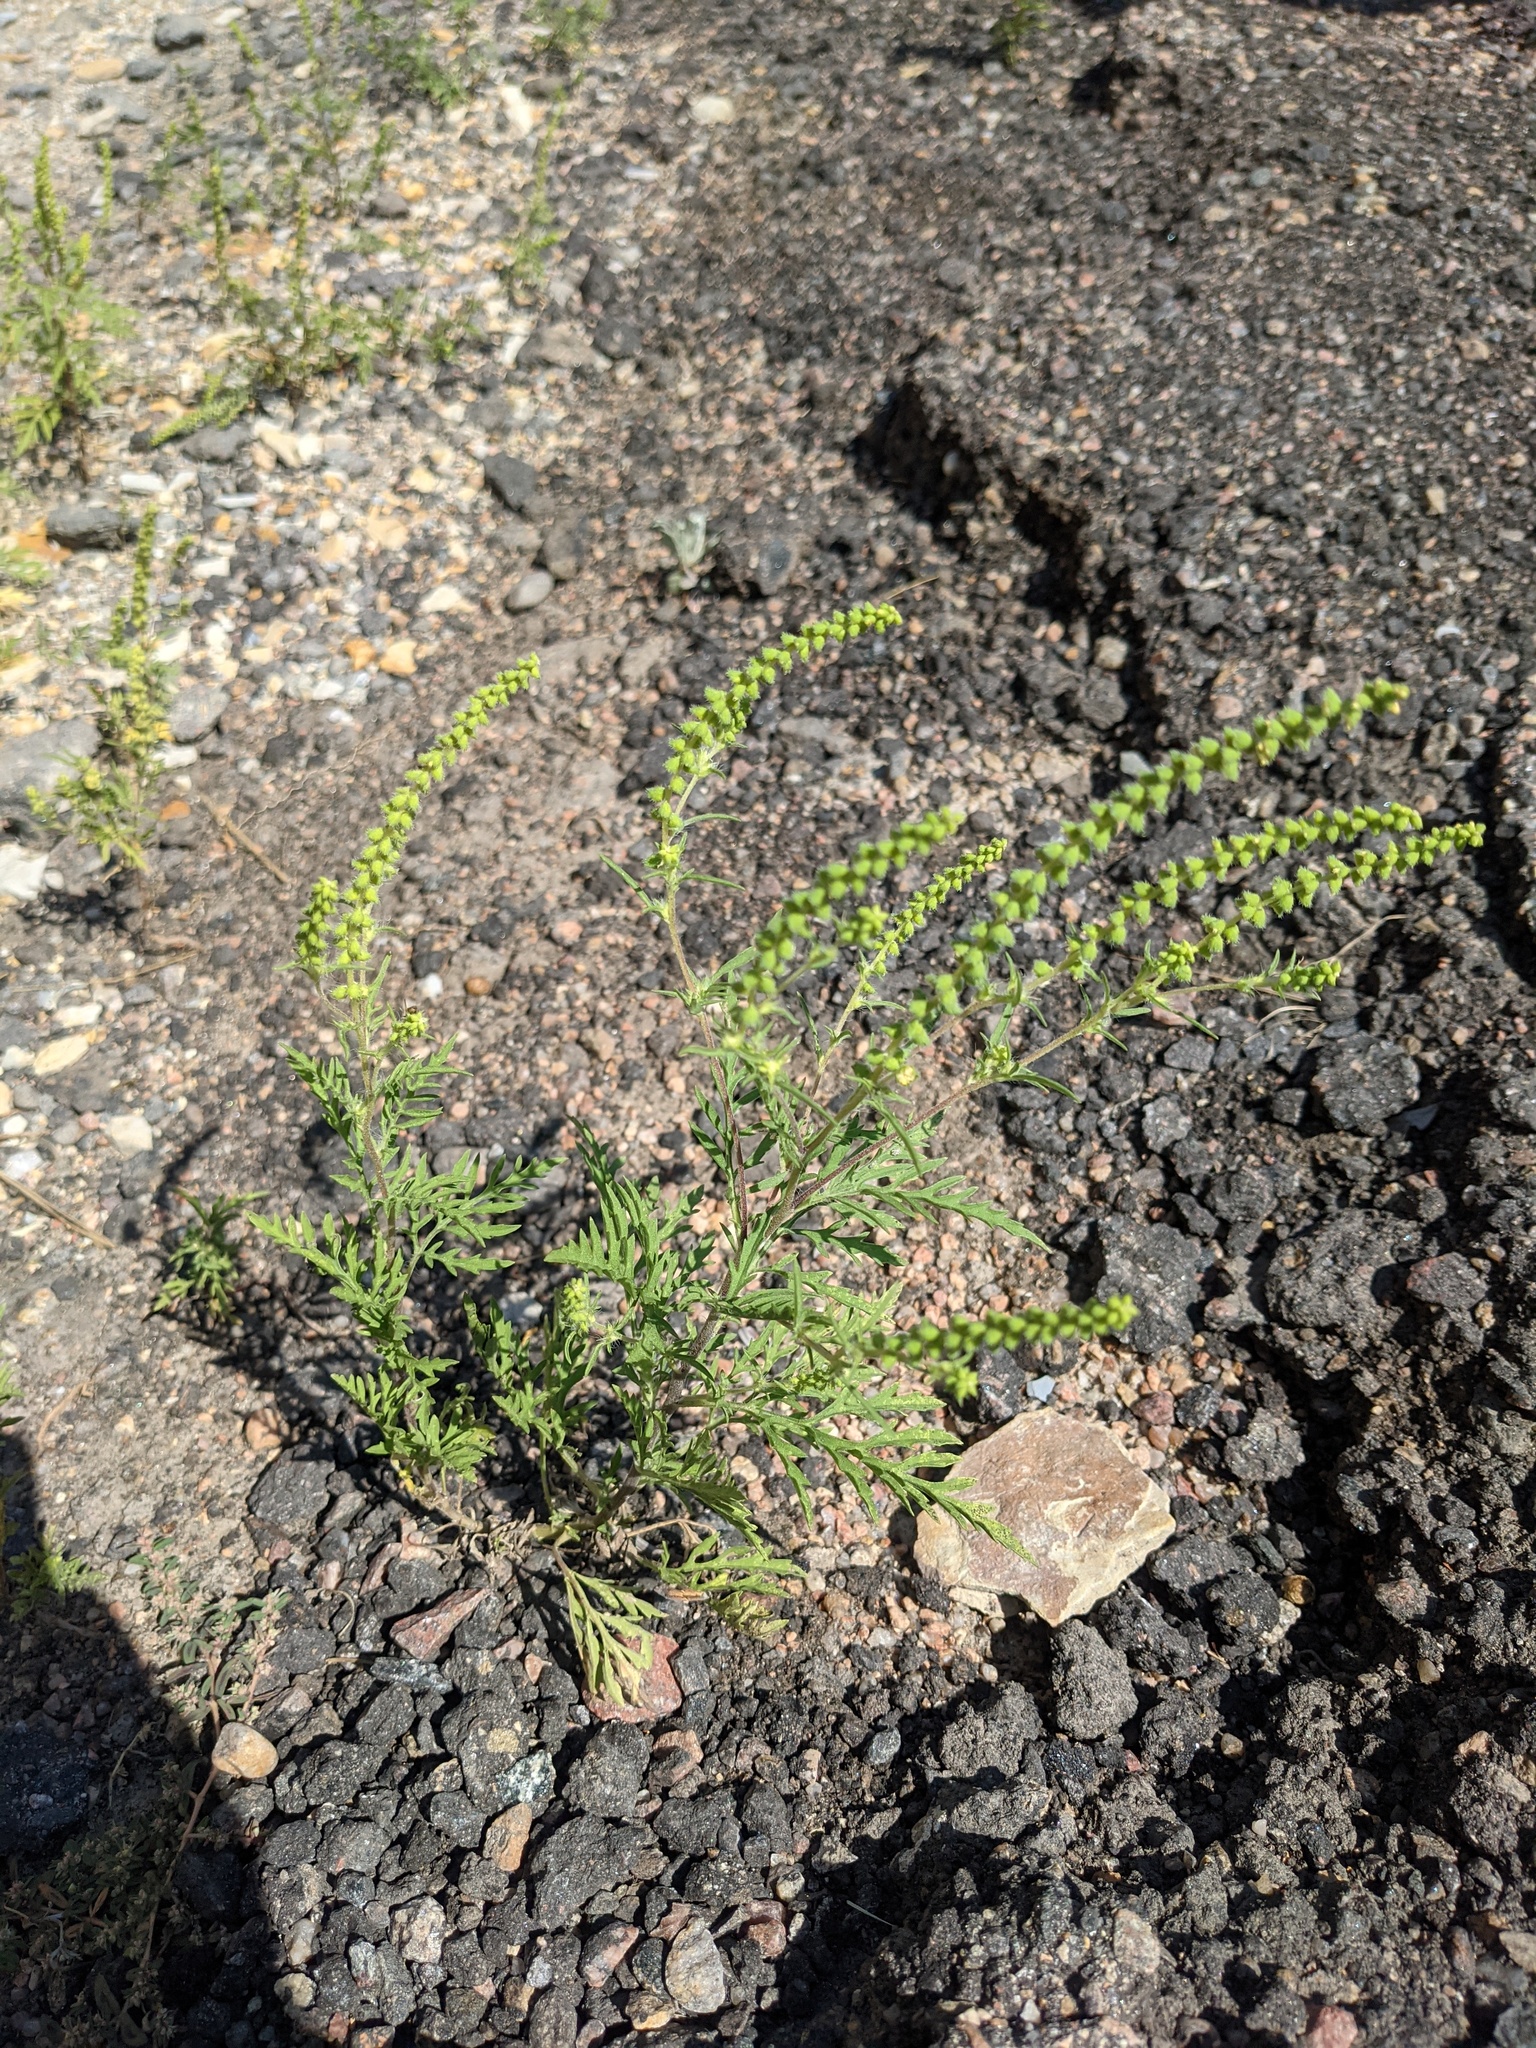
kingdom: Plantae
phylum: Tracheophyta
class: Magnoliopsida
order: Asterales
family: Asteraceae
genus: Ambrosia
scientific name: Ambrosia artemisiifolia
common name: Annual ragweed
